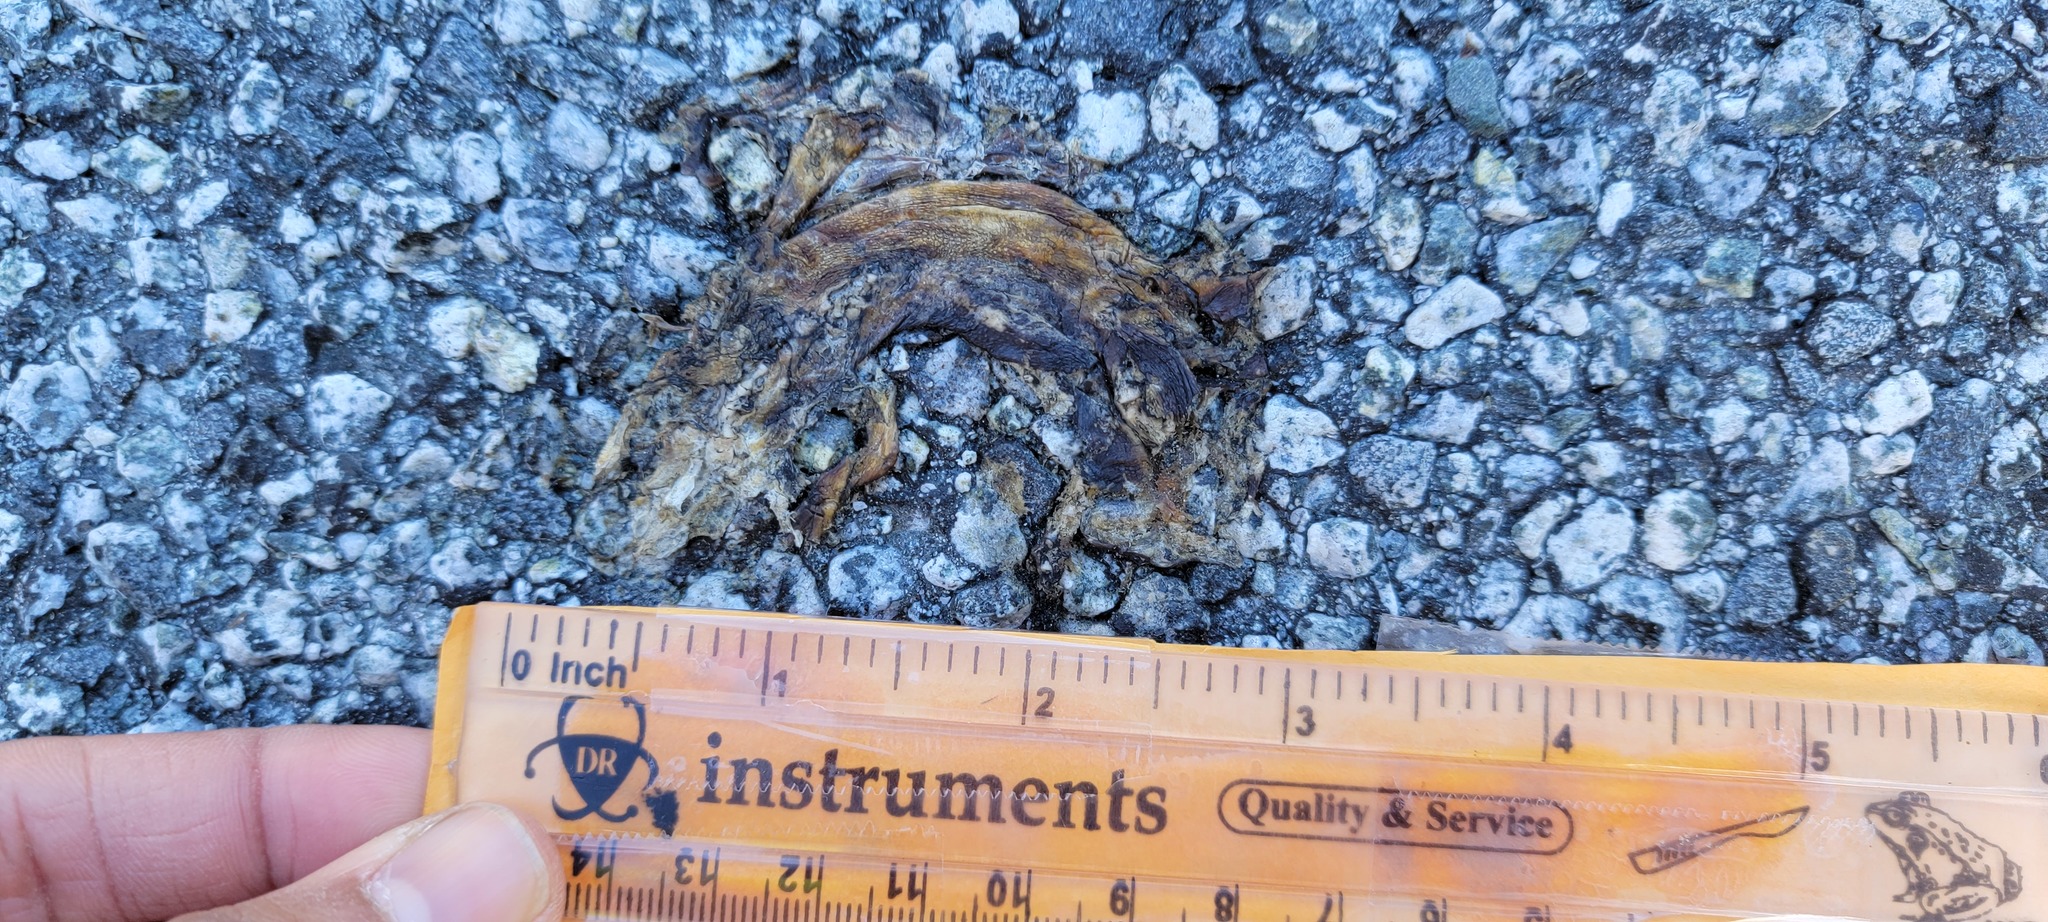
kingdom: Animalia
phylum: Chordata
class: Amphibia
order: Caudata
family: Salamandridae
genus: Taricha
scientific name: Taricha
